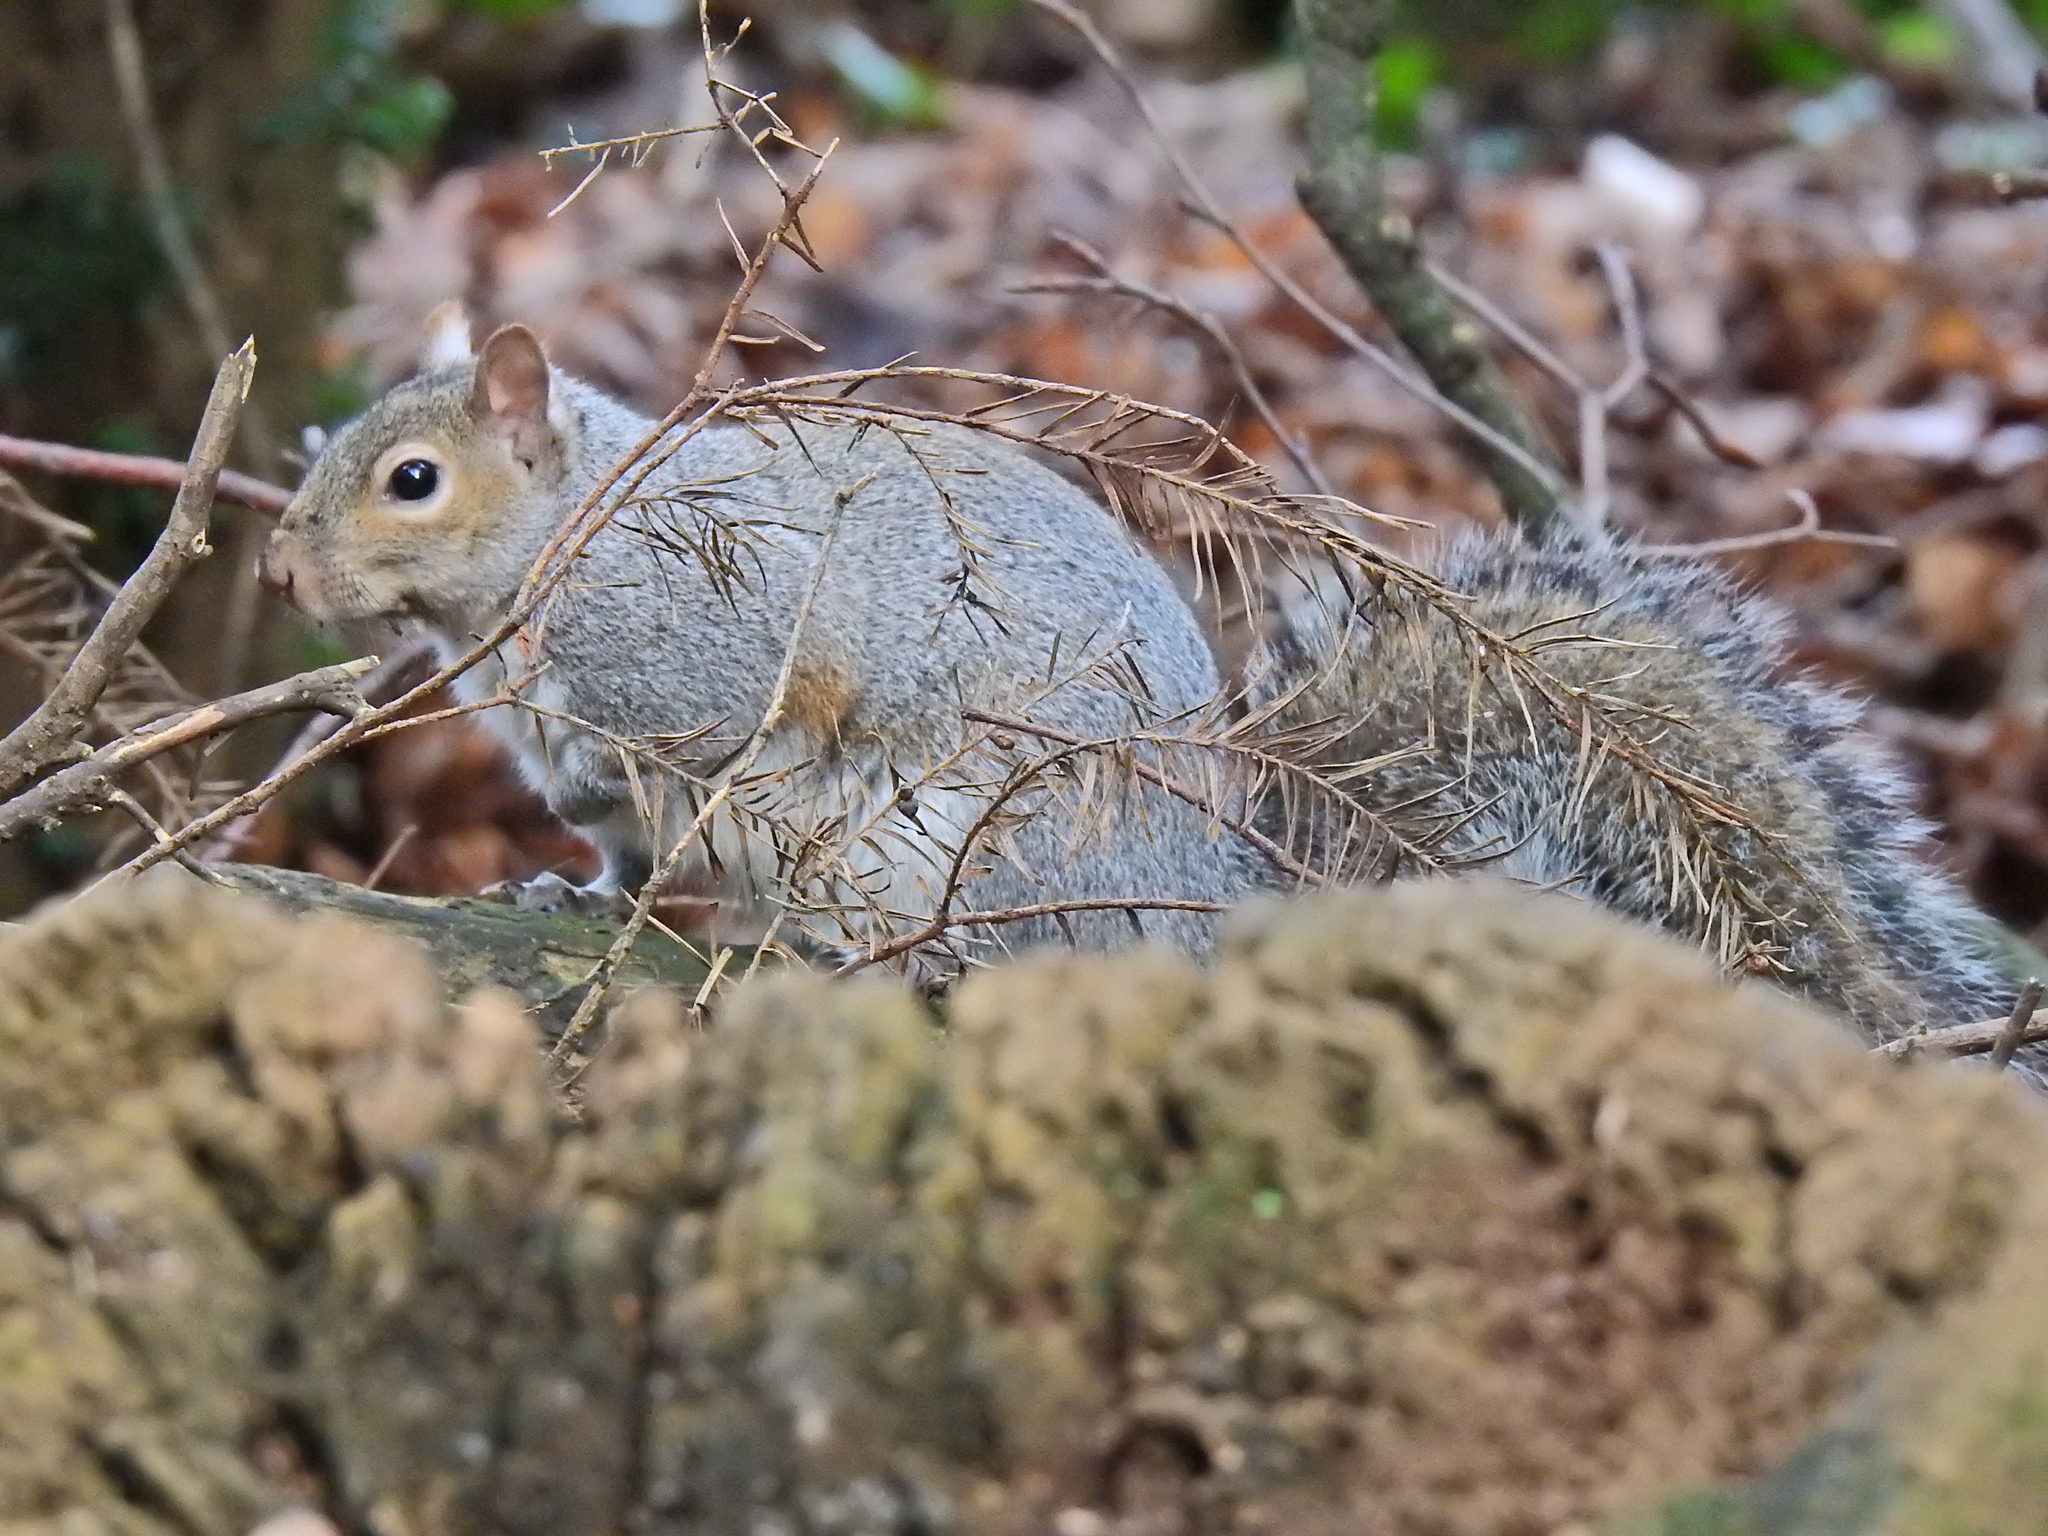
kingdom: Animalia
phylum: Chordata
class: Mammalia
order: Rodentia
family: Sciuridae
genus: Sciurus
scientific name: Sciurus carolinensis
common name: Eastern gray squirrel
